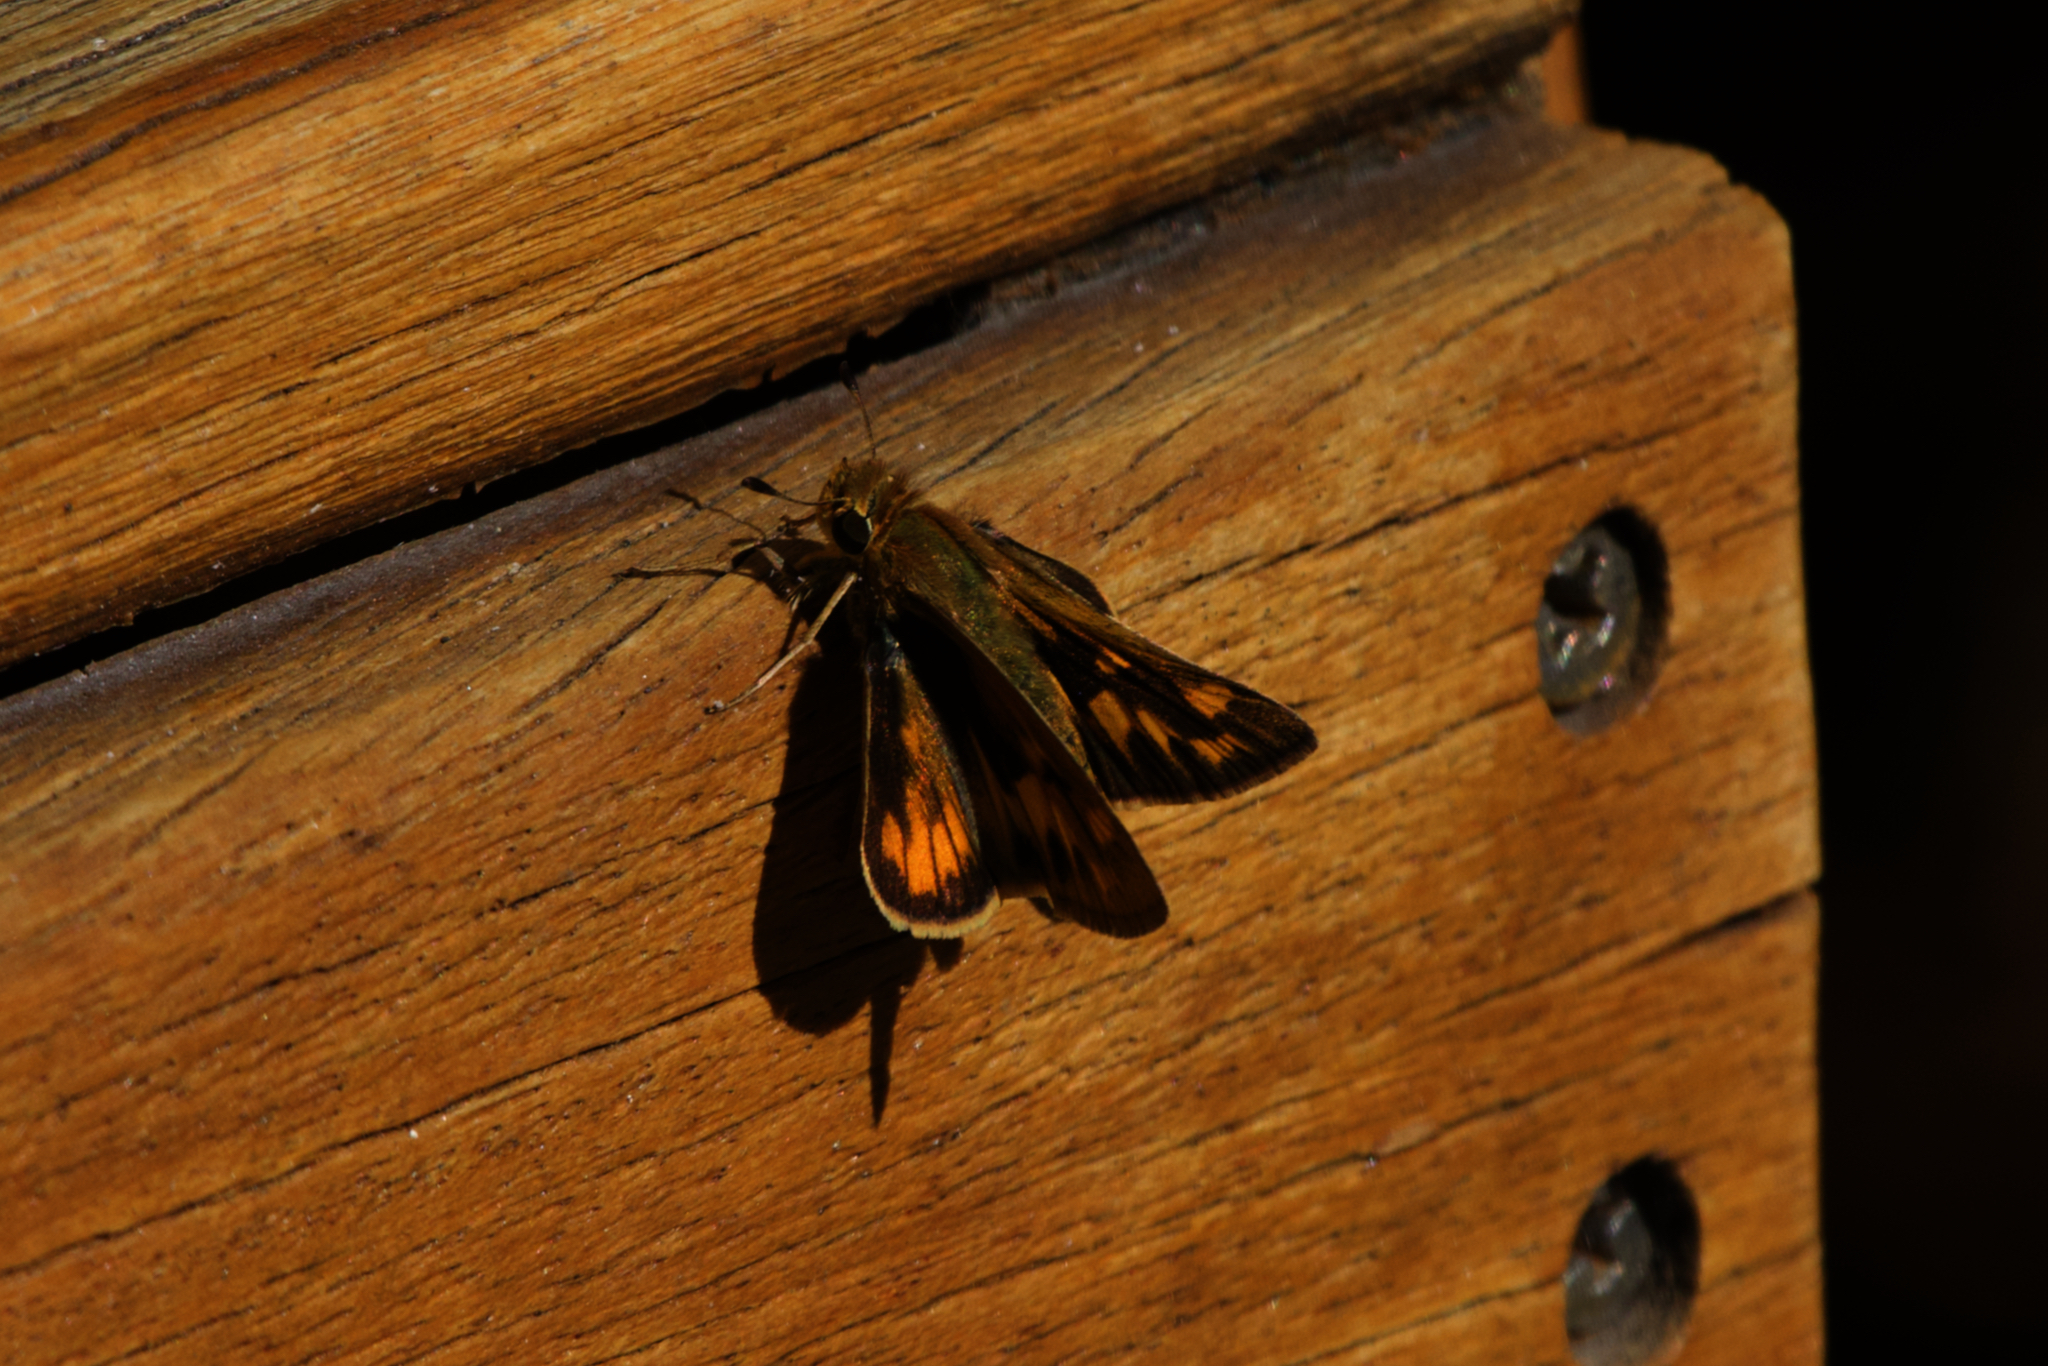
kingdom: Animalia
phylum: Arthropoda
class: Insecta
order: Lepidoptera
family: Hesperiidae
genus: Hylephila
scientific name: Hylephila phyleus
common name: Fiery skipper
